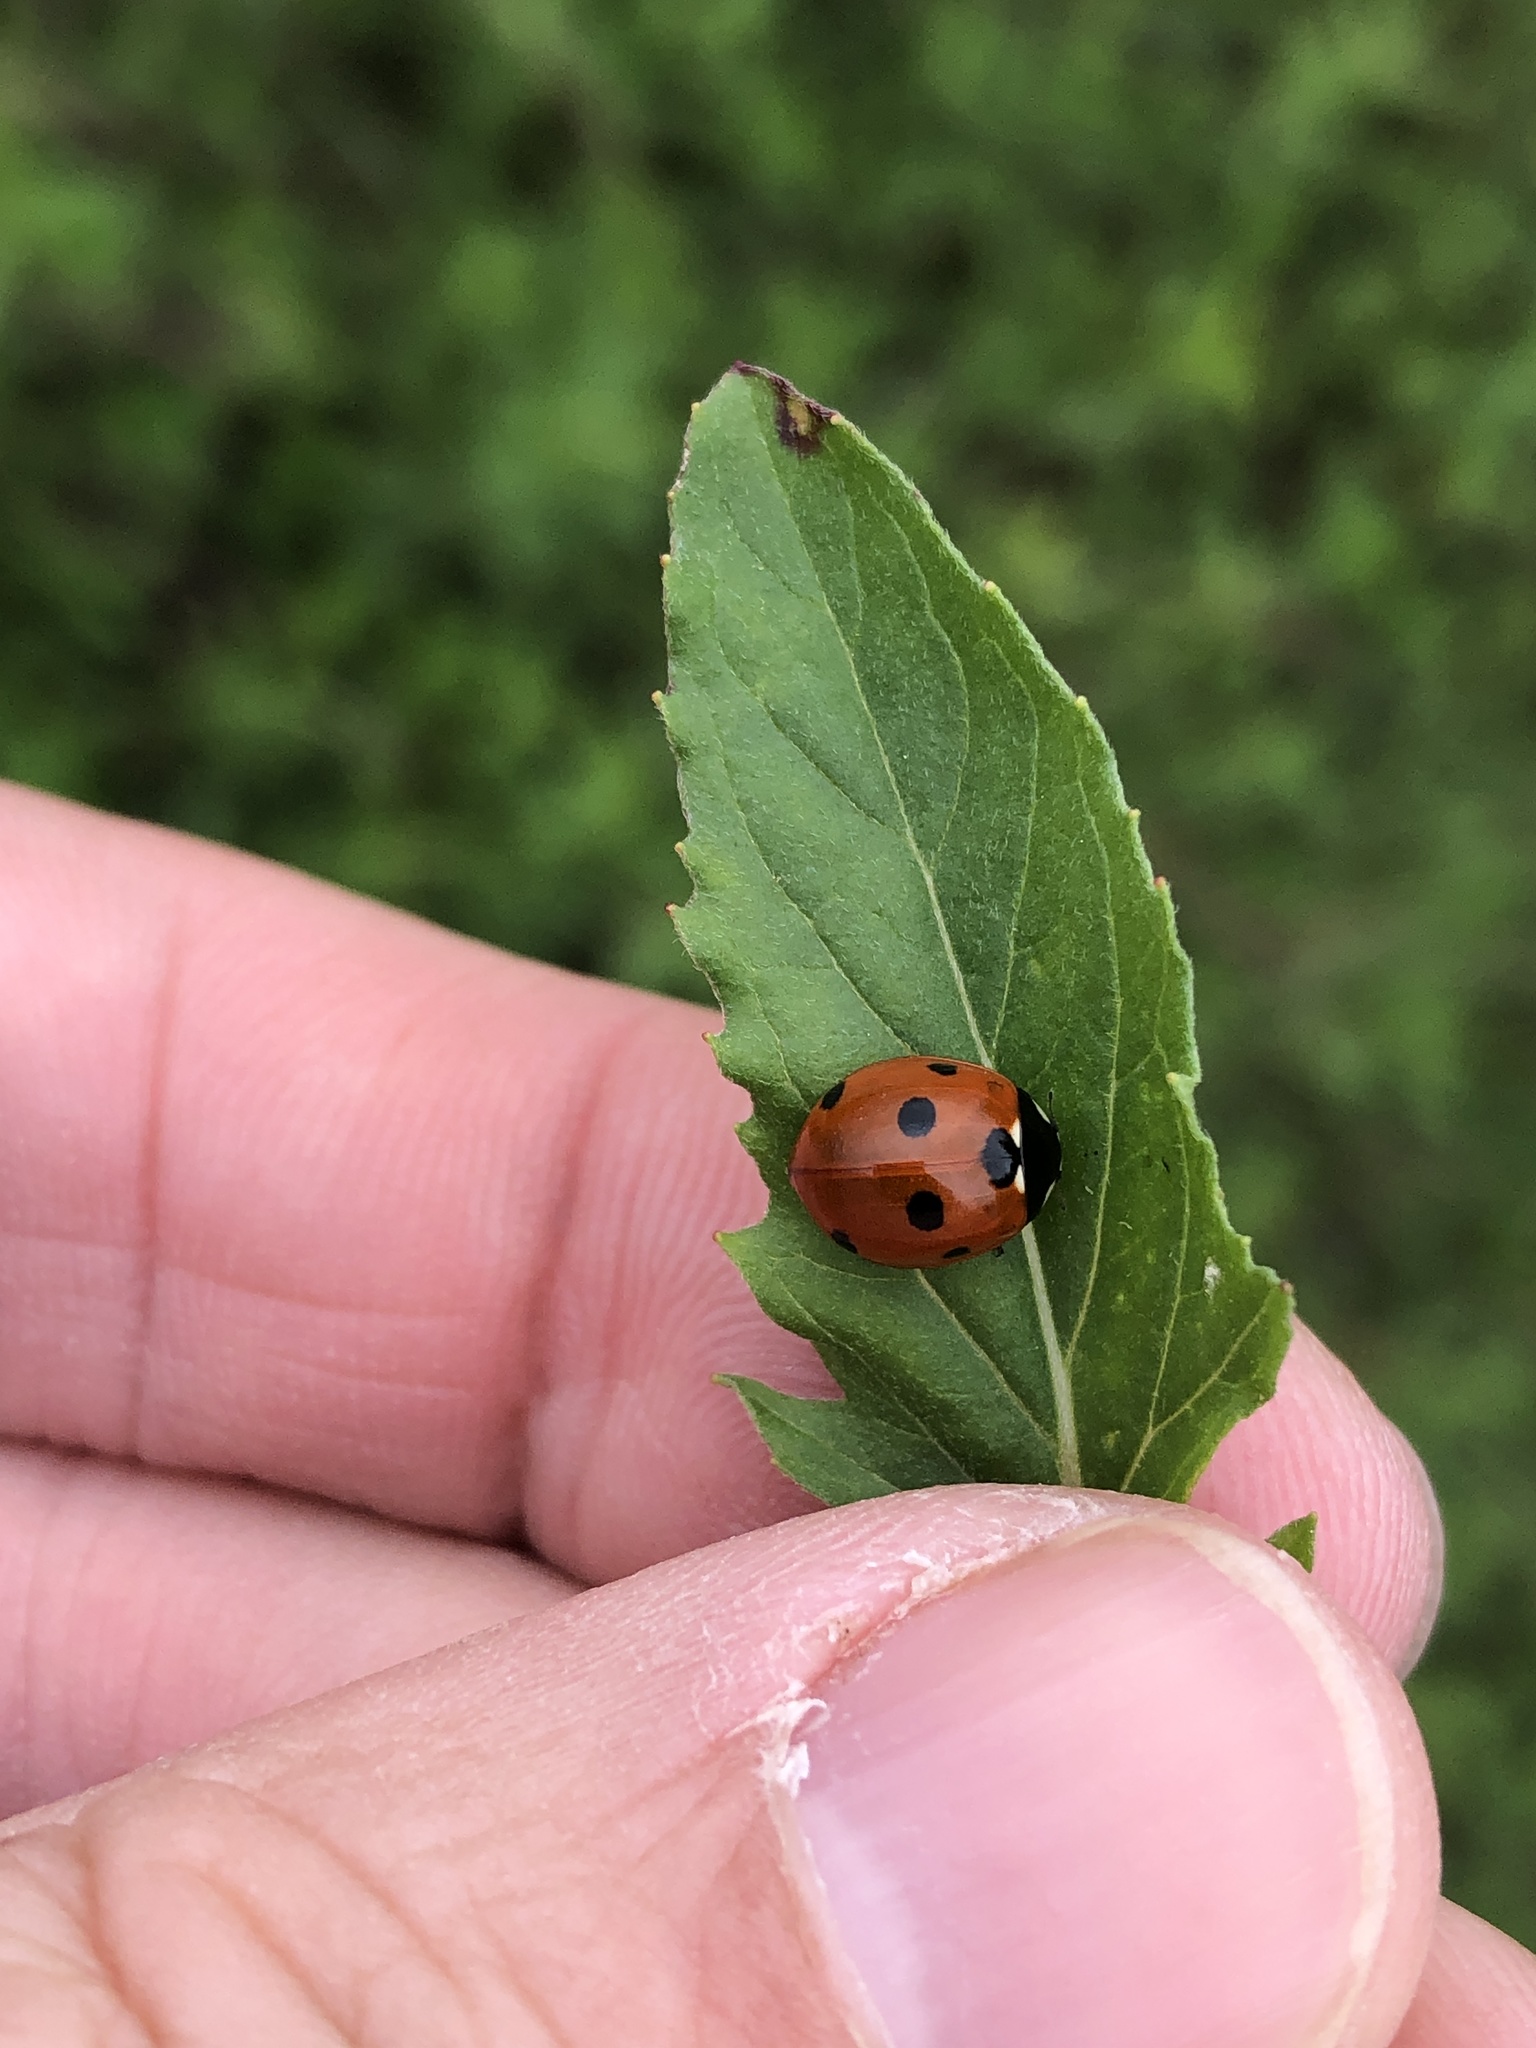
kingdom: Animalia
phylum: Arthropoda
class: Insecta
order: Coleoptera
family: Coccinellidae
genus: Coccinella
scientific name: Coccinella septempunctata
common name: Sevenspotted lady beetle
